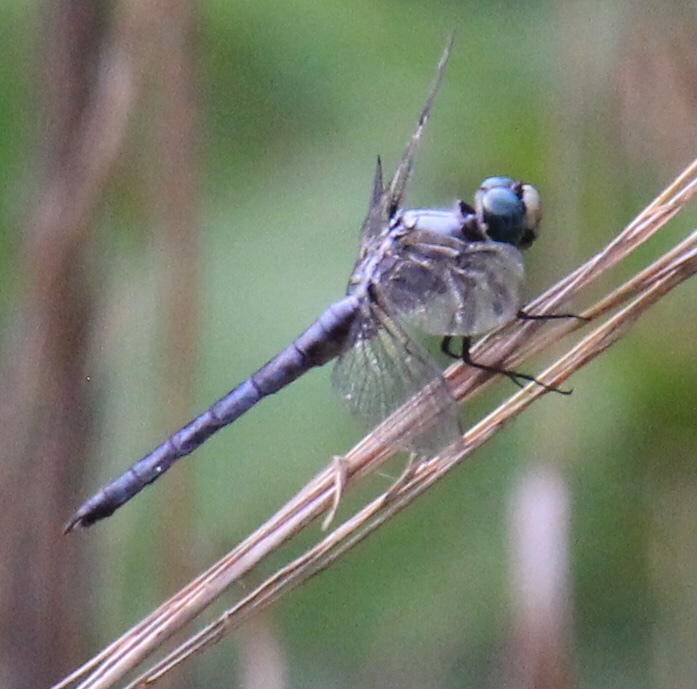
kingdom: Animalia
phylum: Arthropoda
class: Insecta
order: Odonata
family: Libellulidae
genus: Libellula
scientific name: Libellula vibrans
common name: Great blue skimmer
